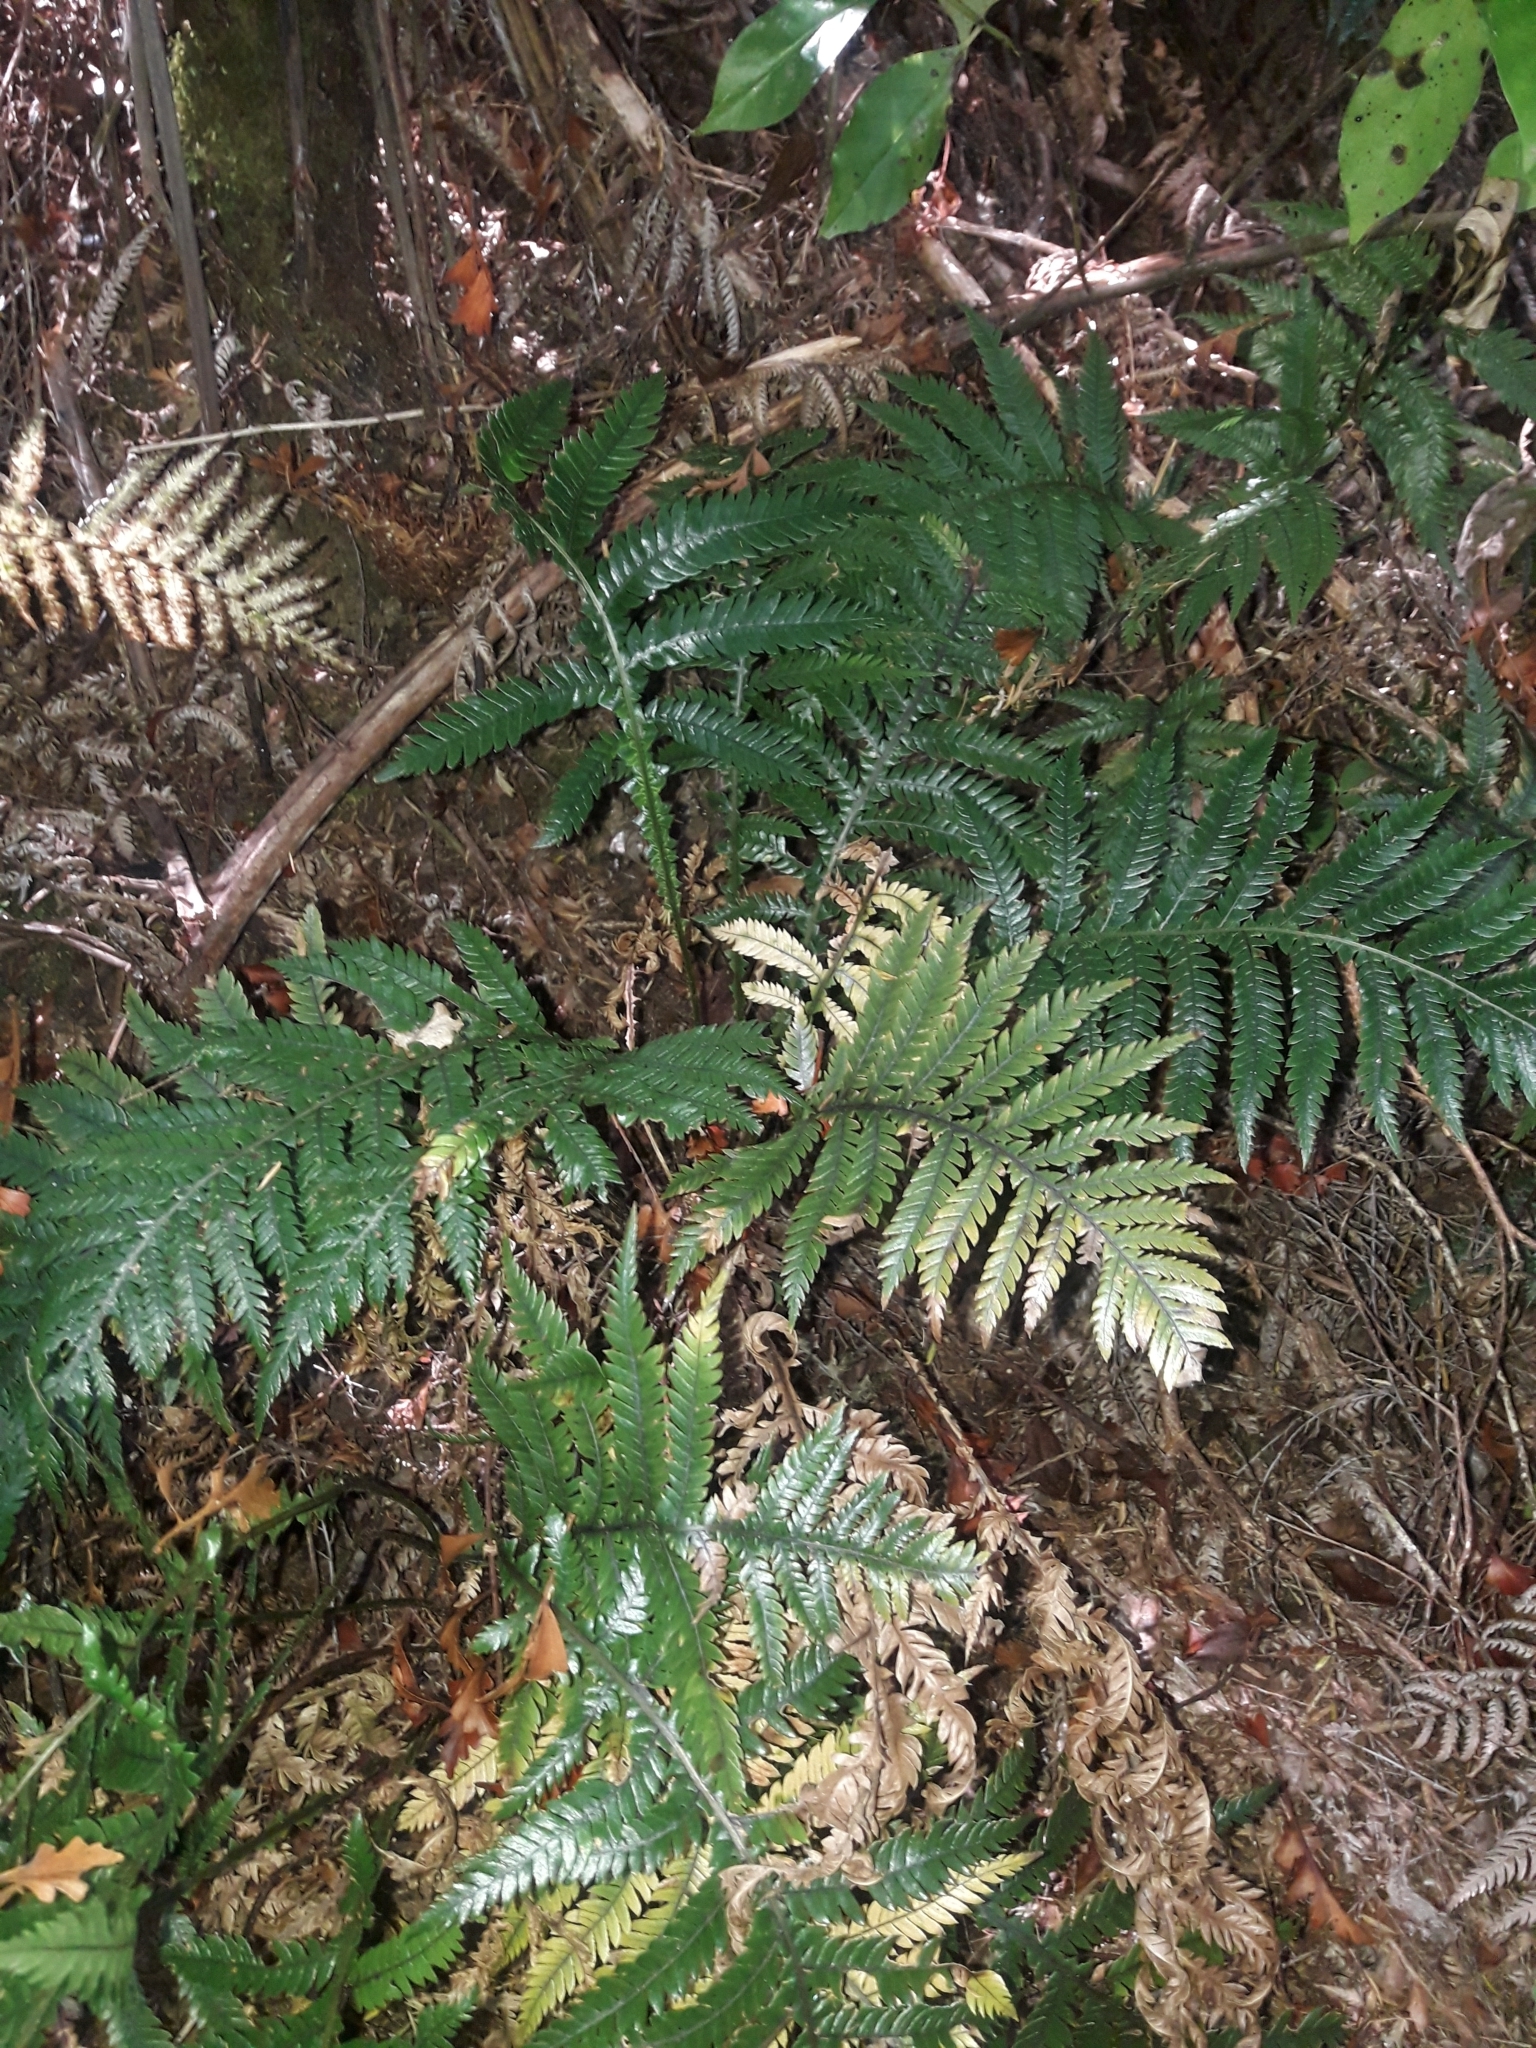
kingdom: Plantae
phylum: Tracheophyta
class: Polypodiopsida
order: Polypodiales
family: Blechnaceae
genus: Diploblechnum
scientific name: Diploblechnum fraseri
